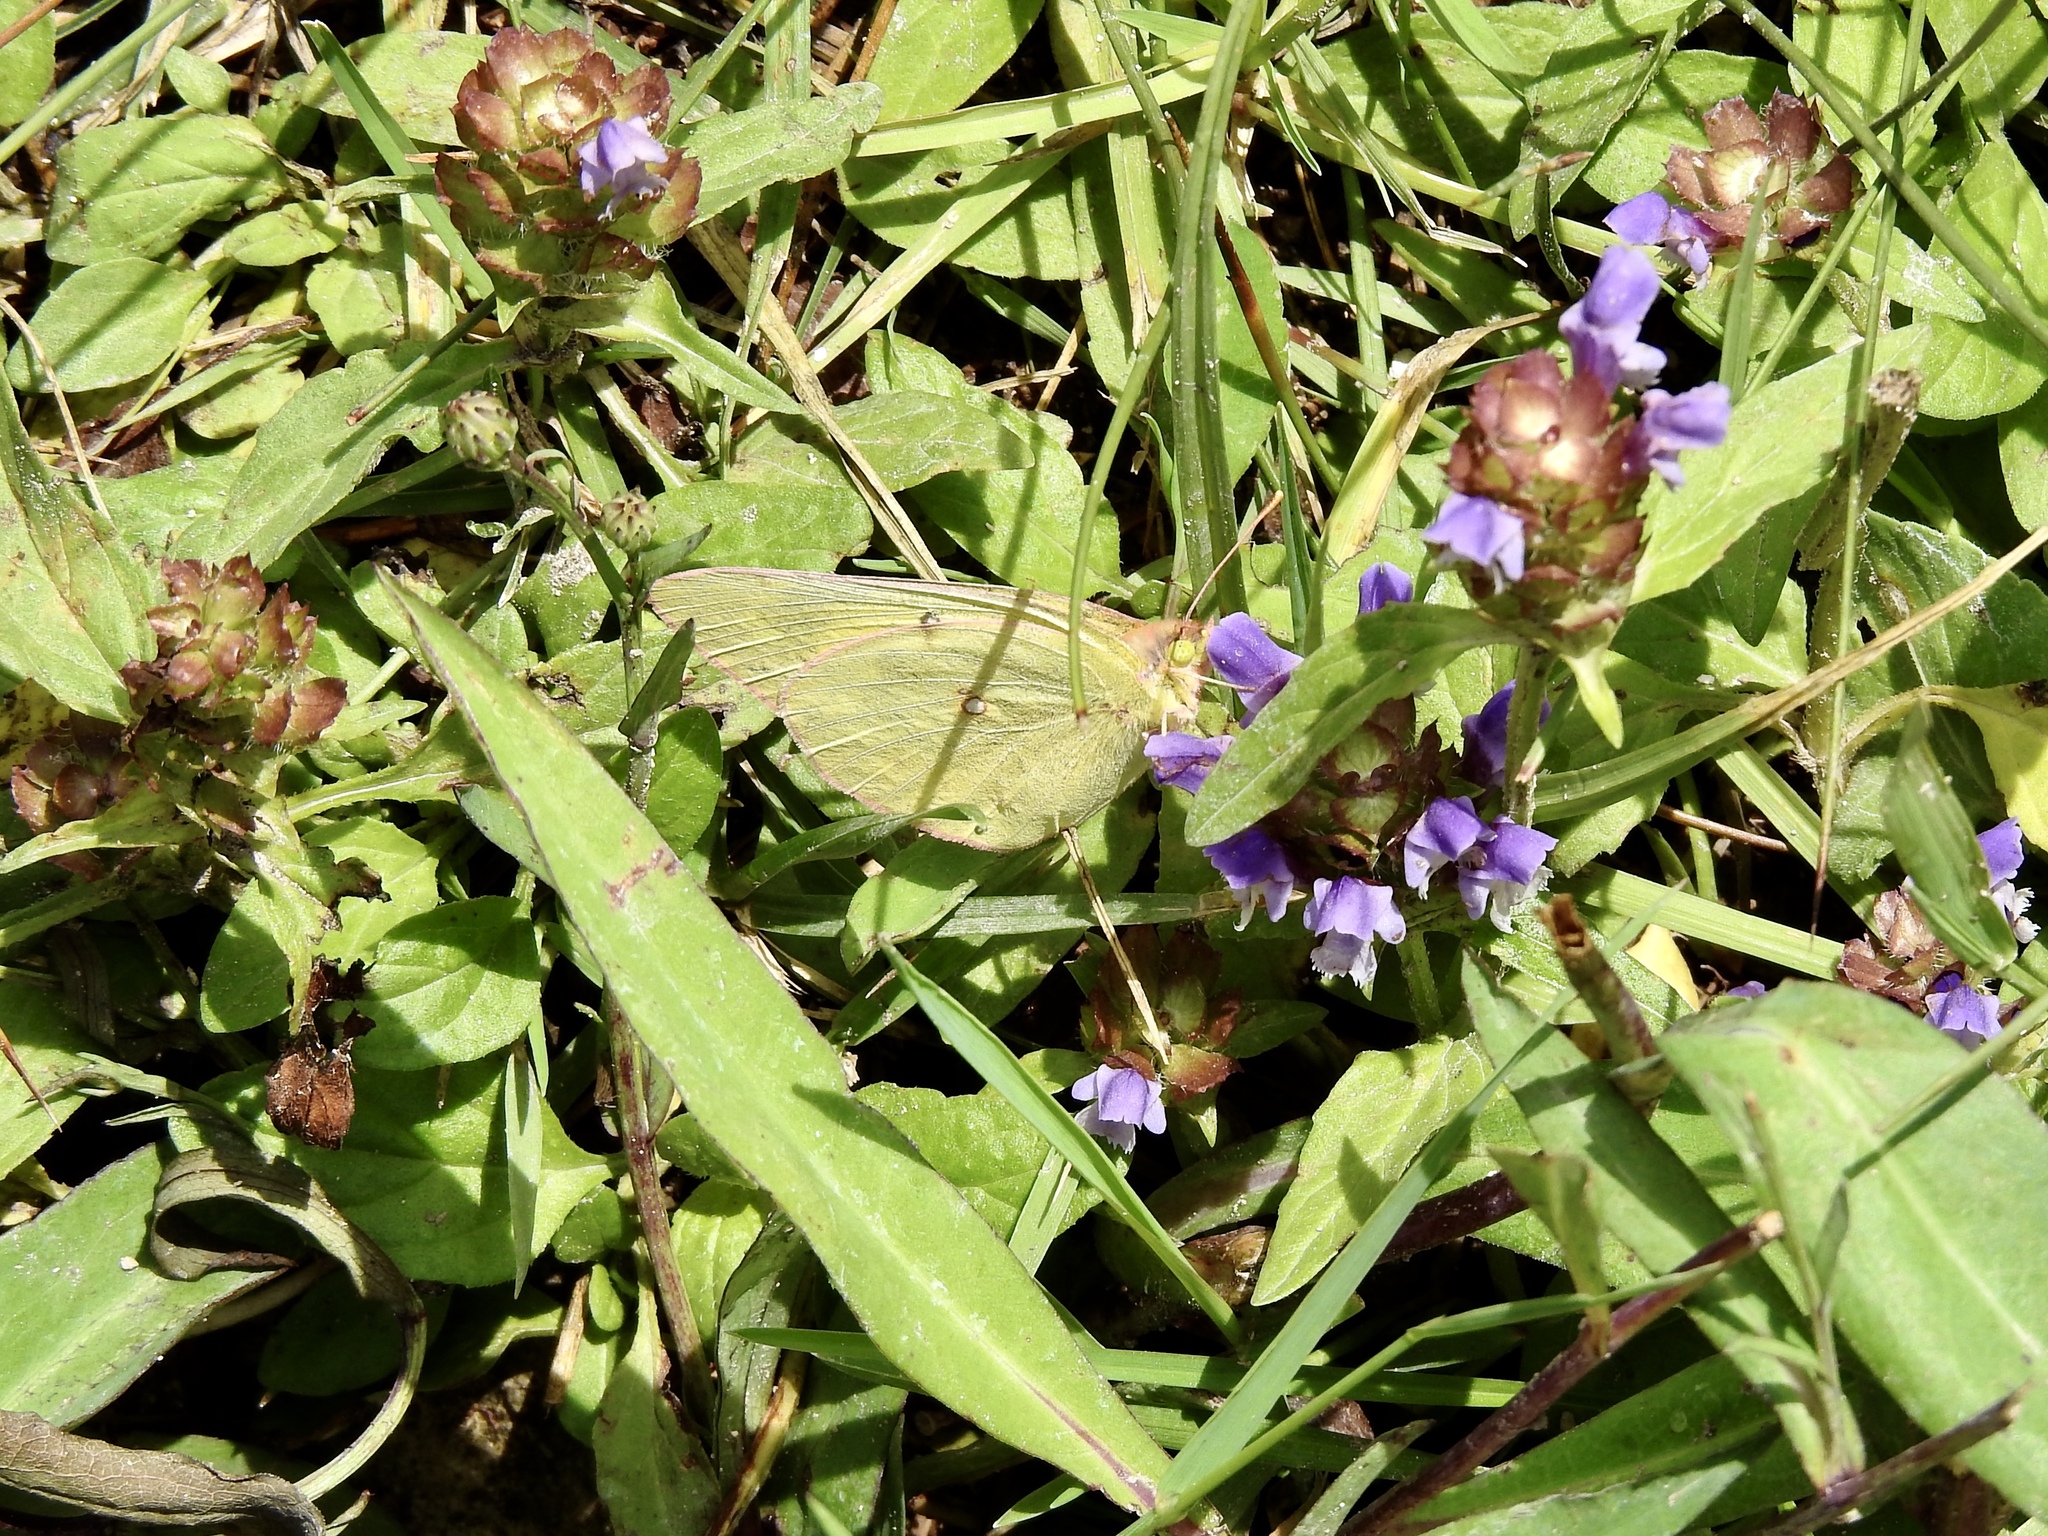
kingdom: Animalia
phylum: Arthropoda
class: Insecta
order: Lepidoptera
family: Pieridae
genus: Colias
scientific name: Colias eurytheme
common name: Alfalfa butterfly
